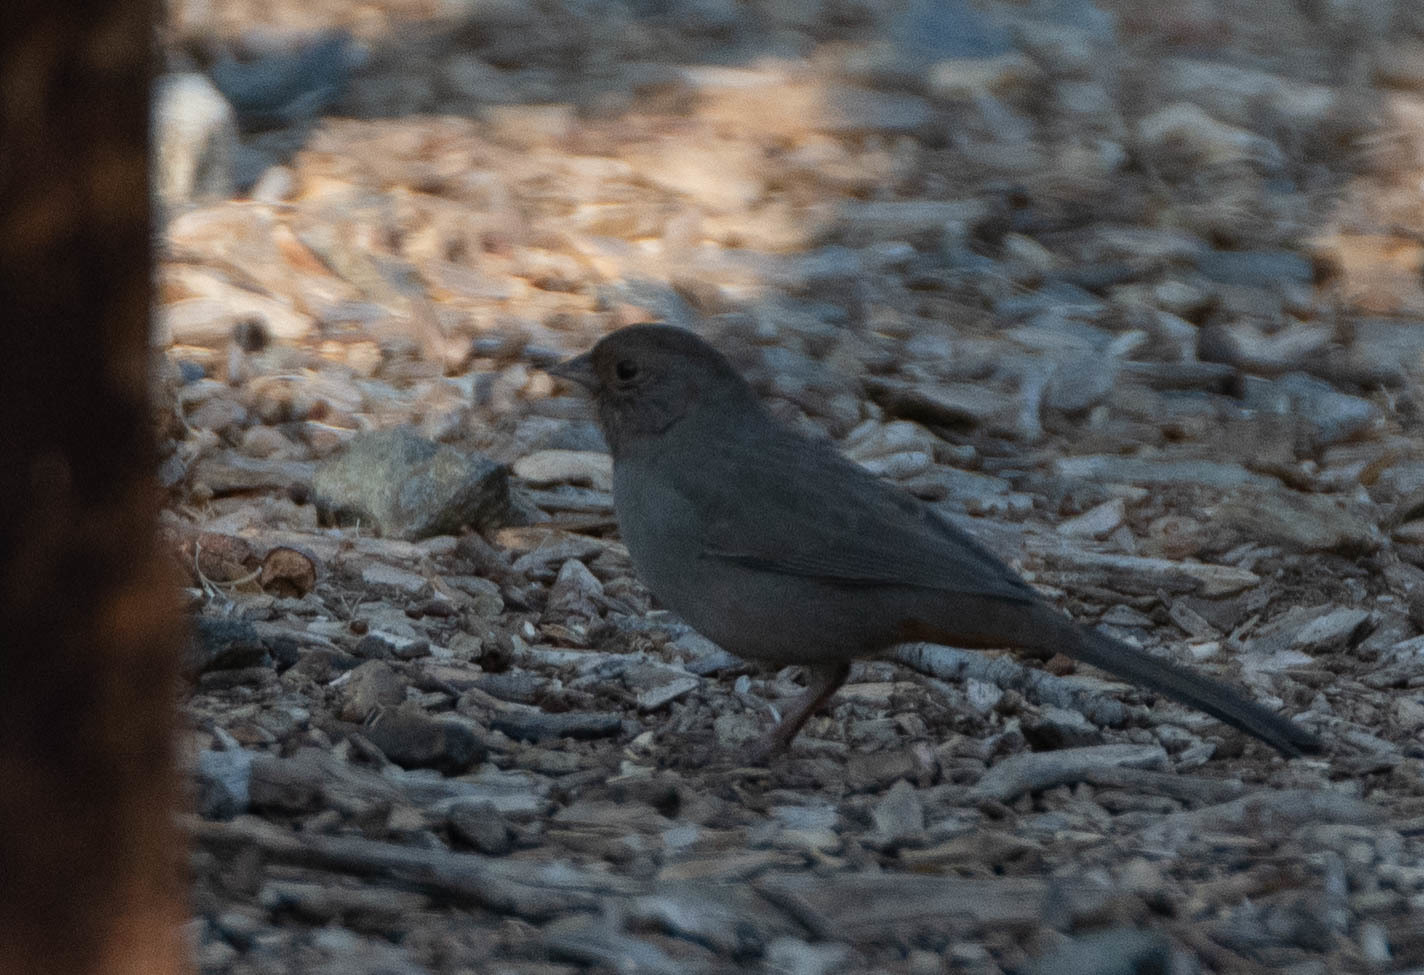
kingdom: Animalia
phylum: Chordata
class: Aves
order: Passeriformes
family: Passerellidae
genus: Melozone
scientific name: Melozone crissalis
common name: California towhee
